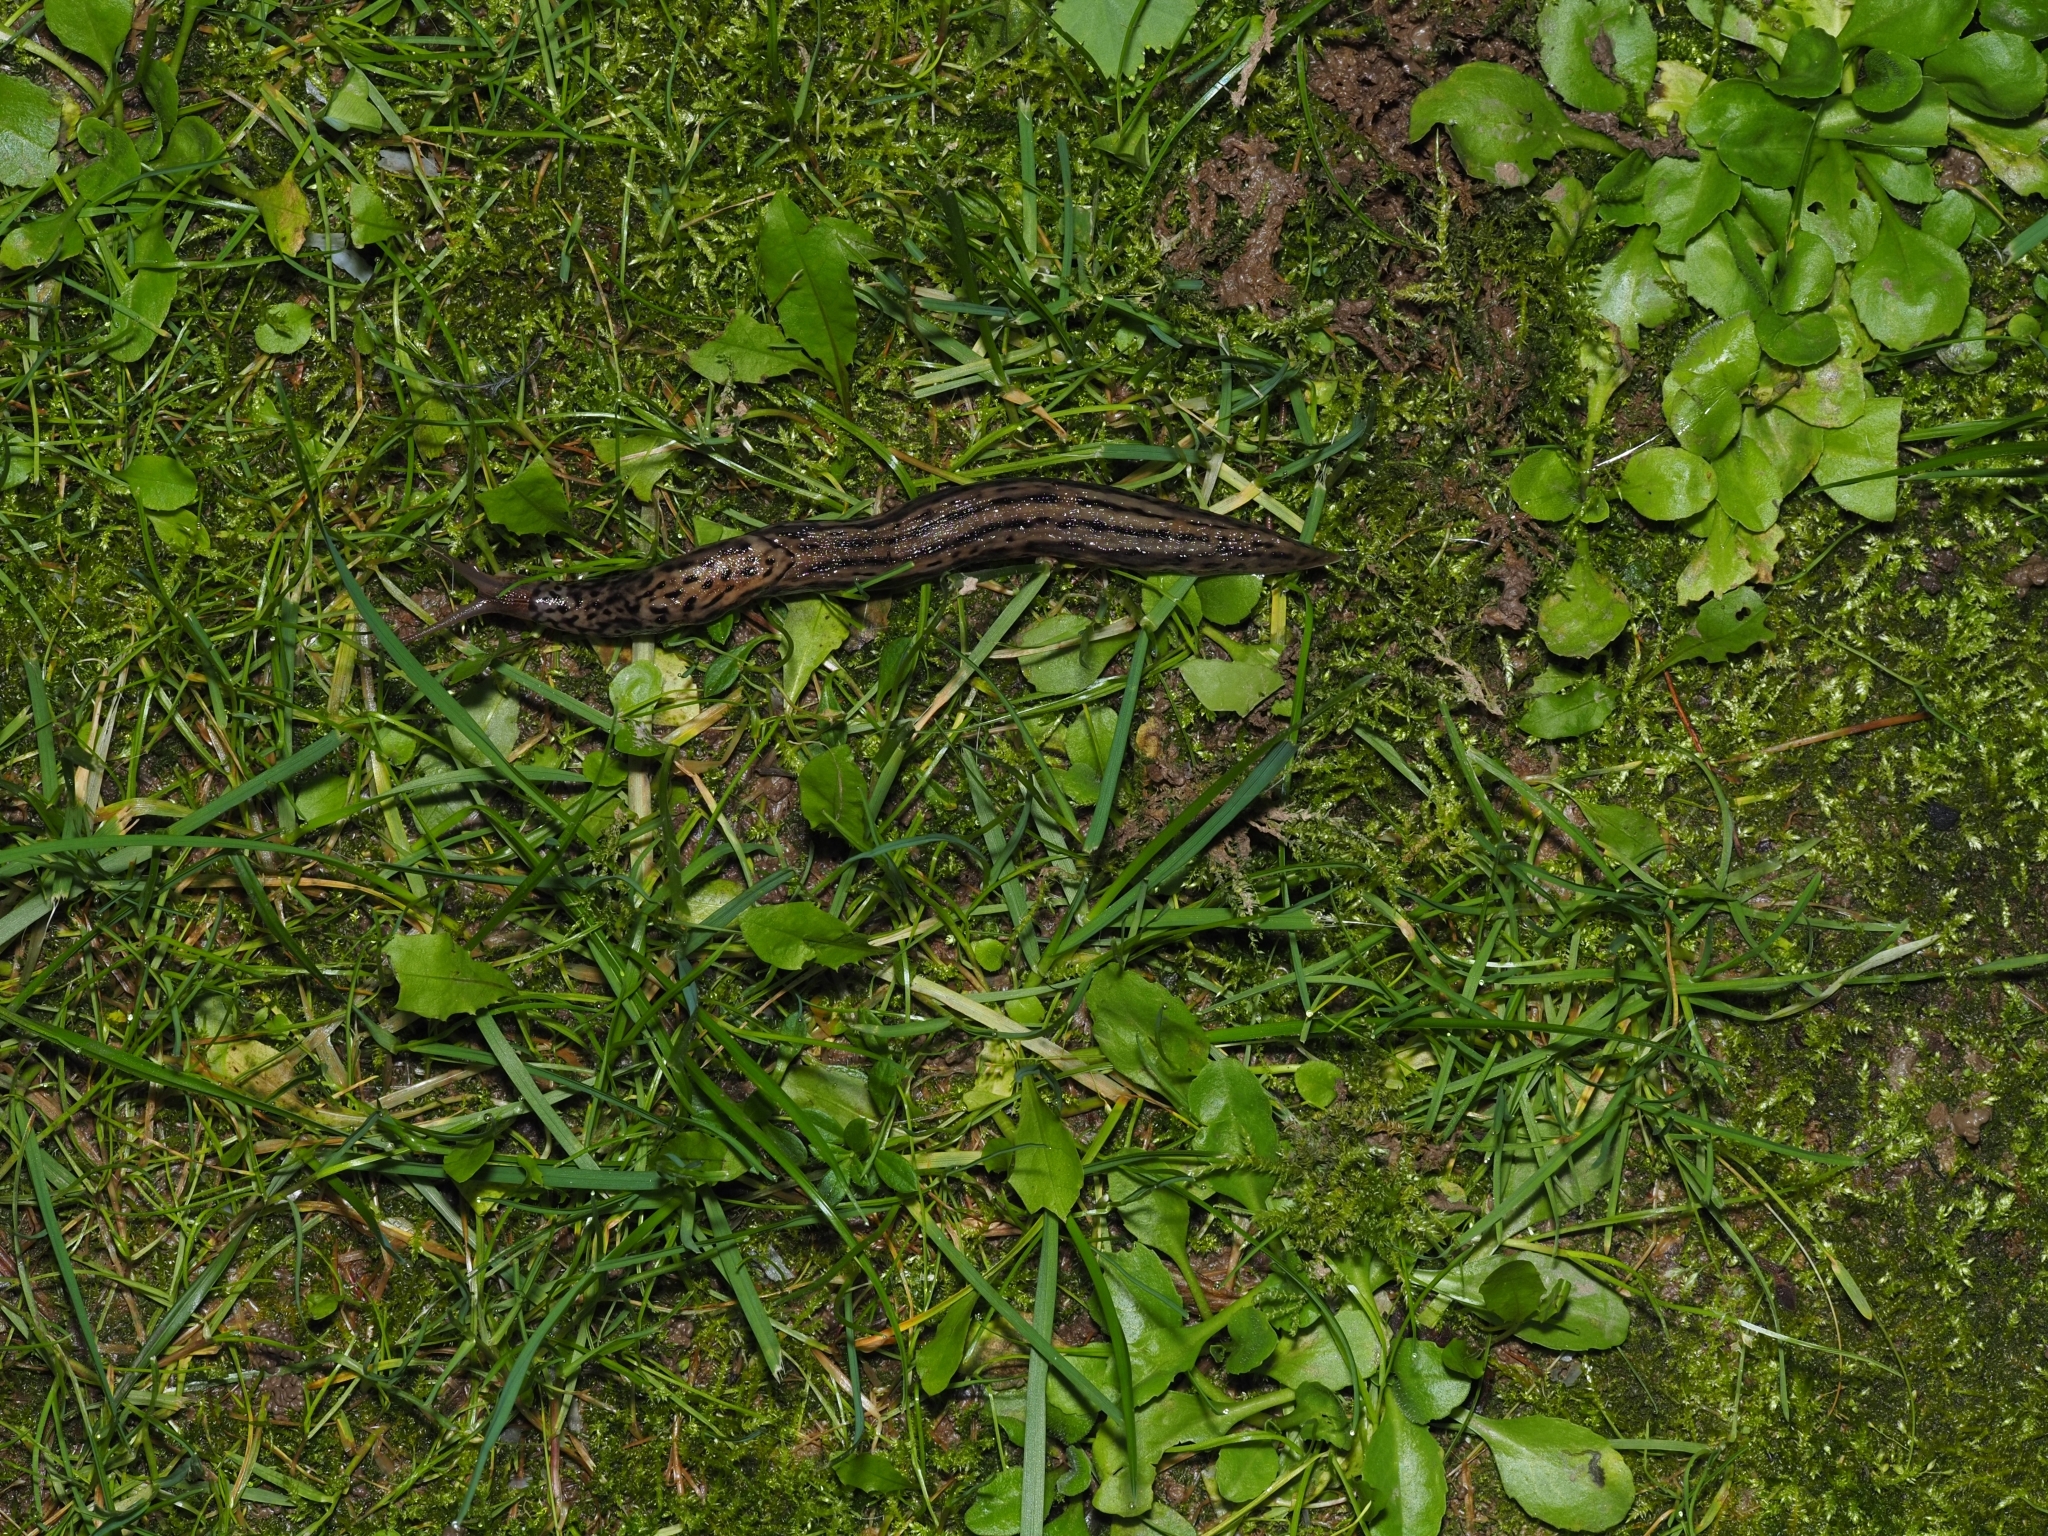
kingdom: Animalia
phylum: Mollusca
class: Gastropoda
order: Stylommatophora
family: Limacidae
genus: Limax
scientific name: Limax maximus
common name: Great grey slug
